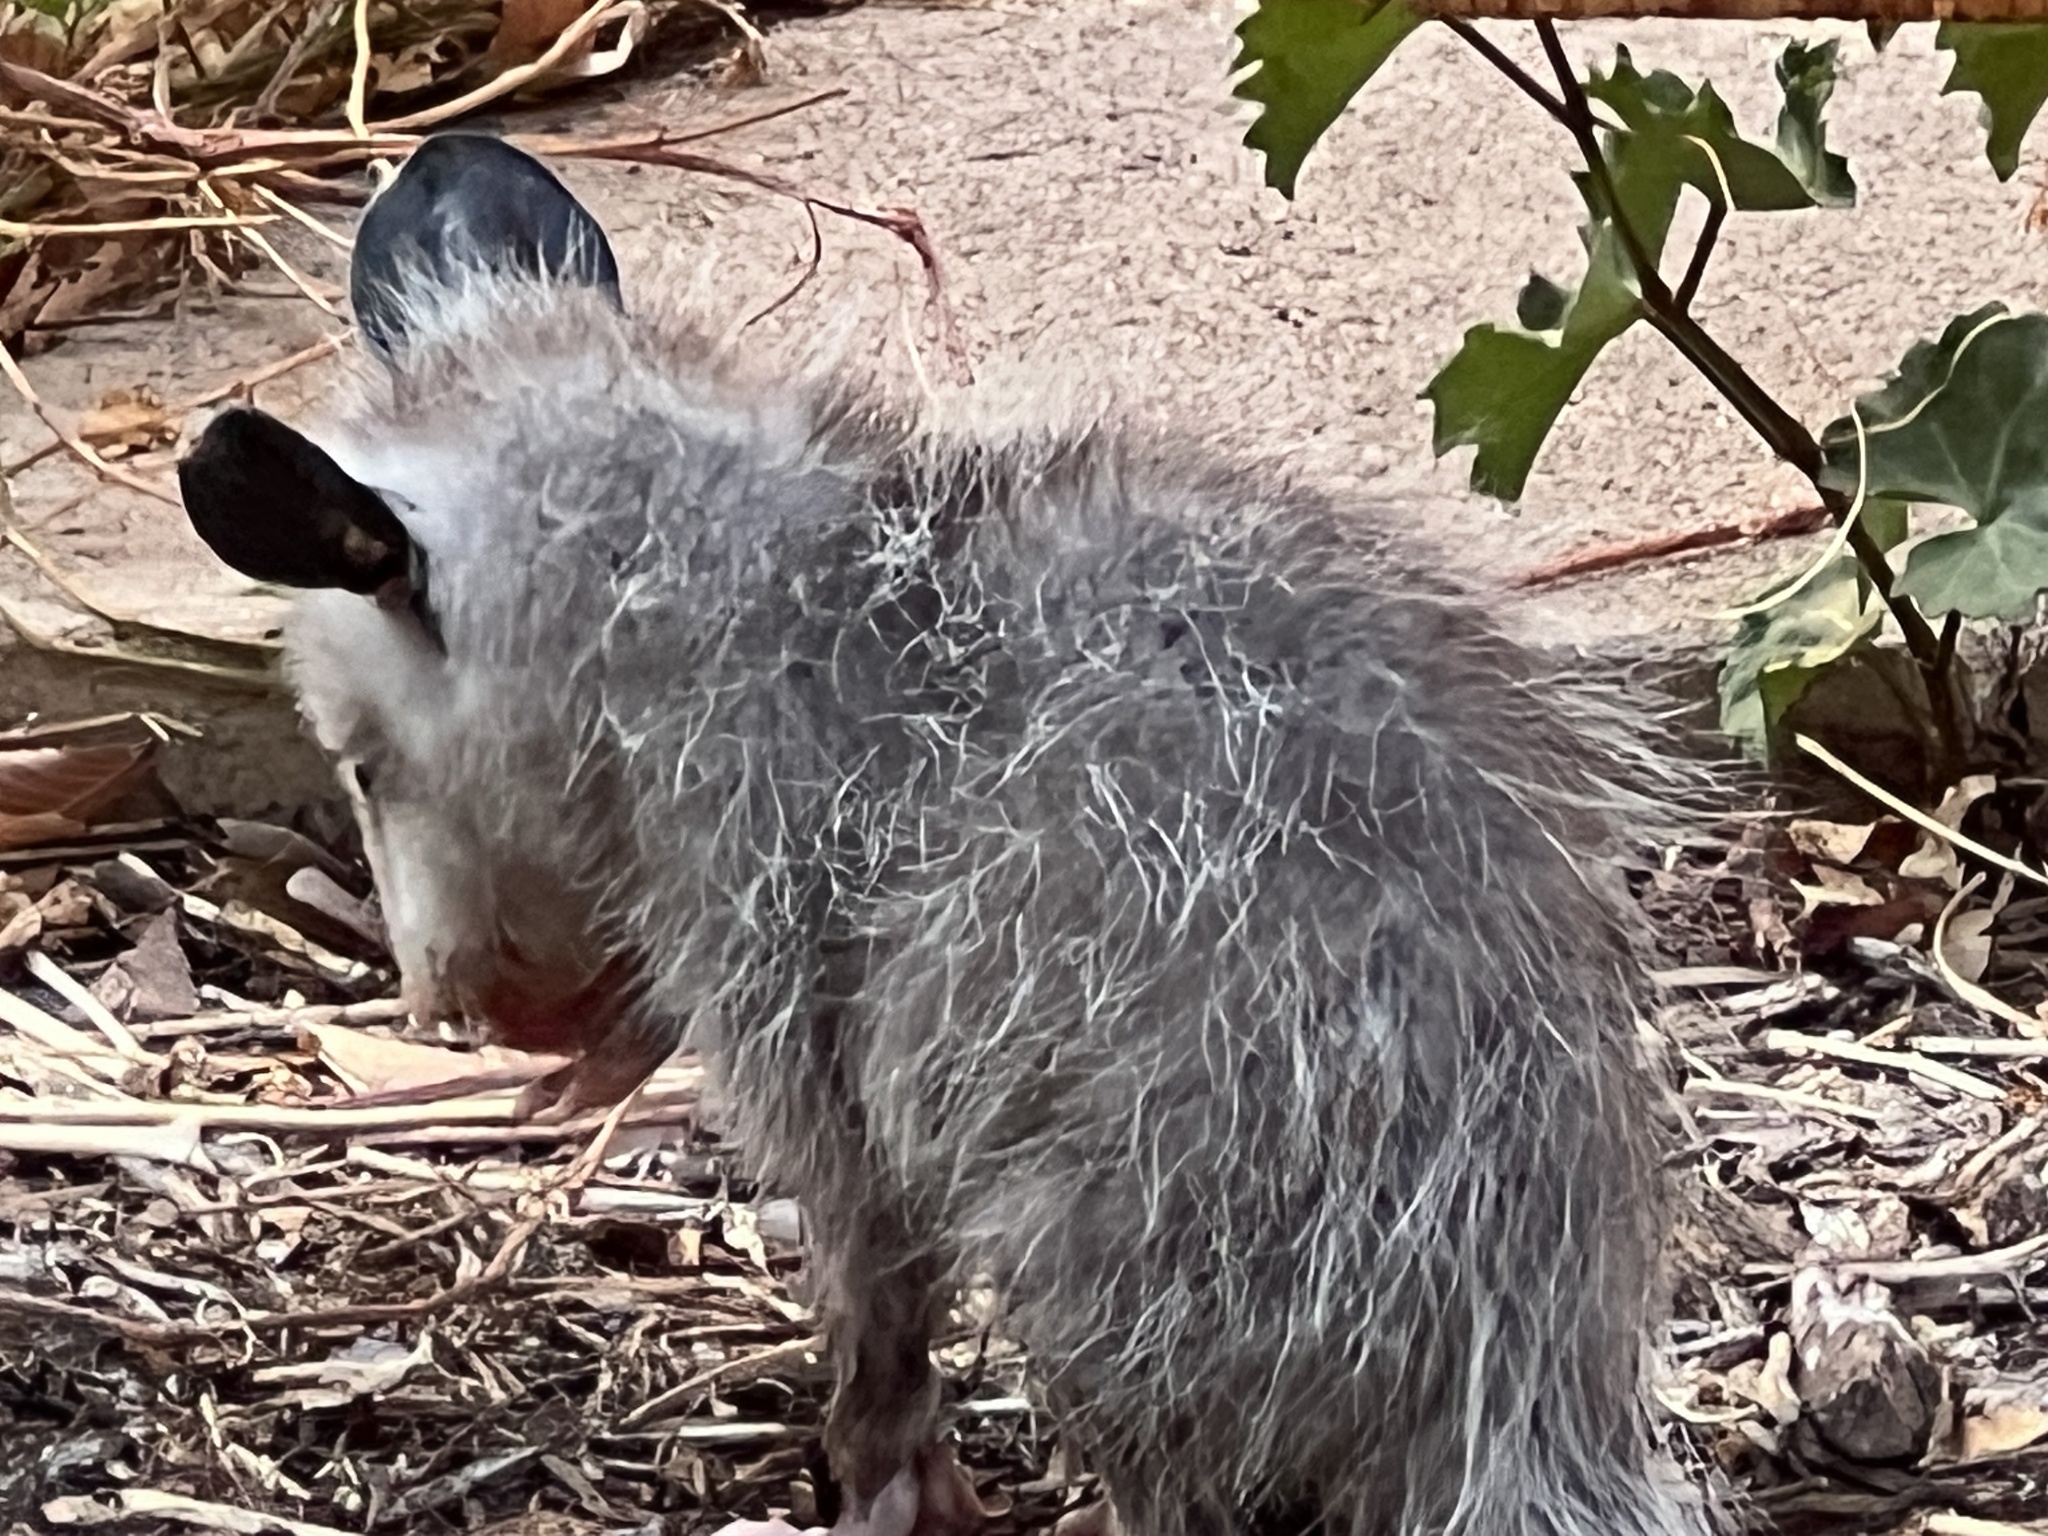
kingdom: Animalia
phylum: Chordata
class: Mammalia
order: Didelphimorphia
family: Didelphidae
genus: Didelphis
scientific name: Didelphis virginiana
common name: Virginia opossum
